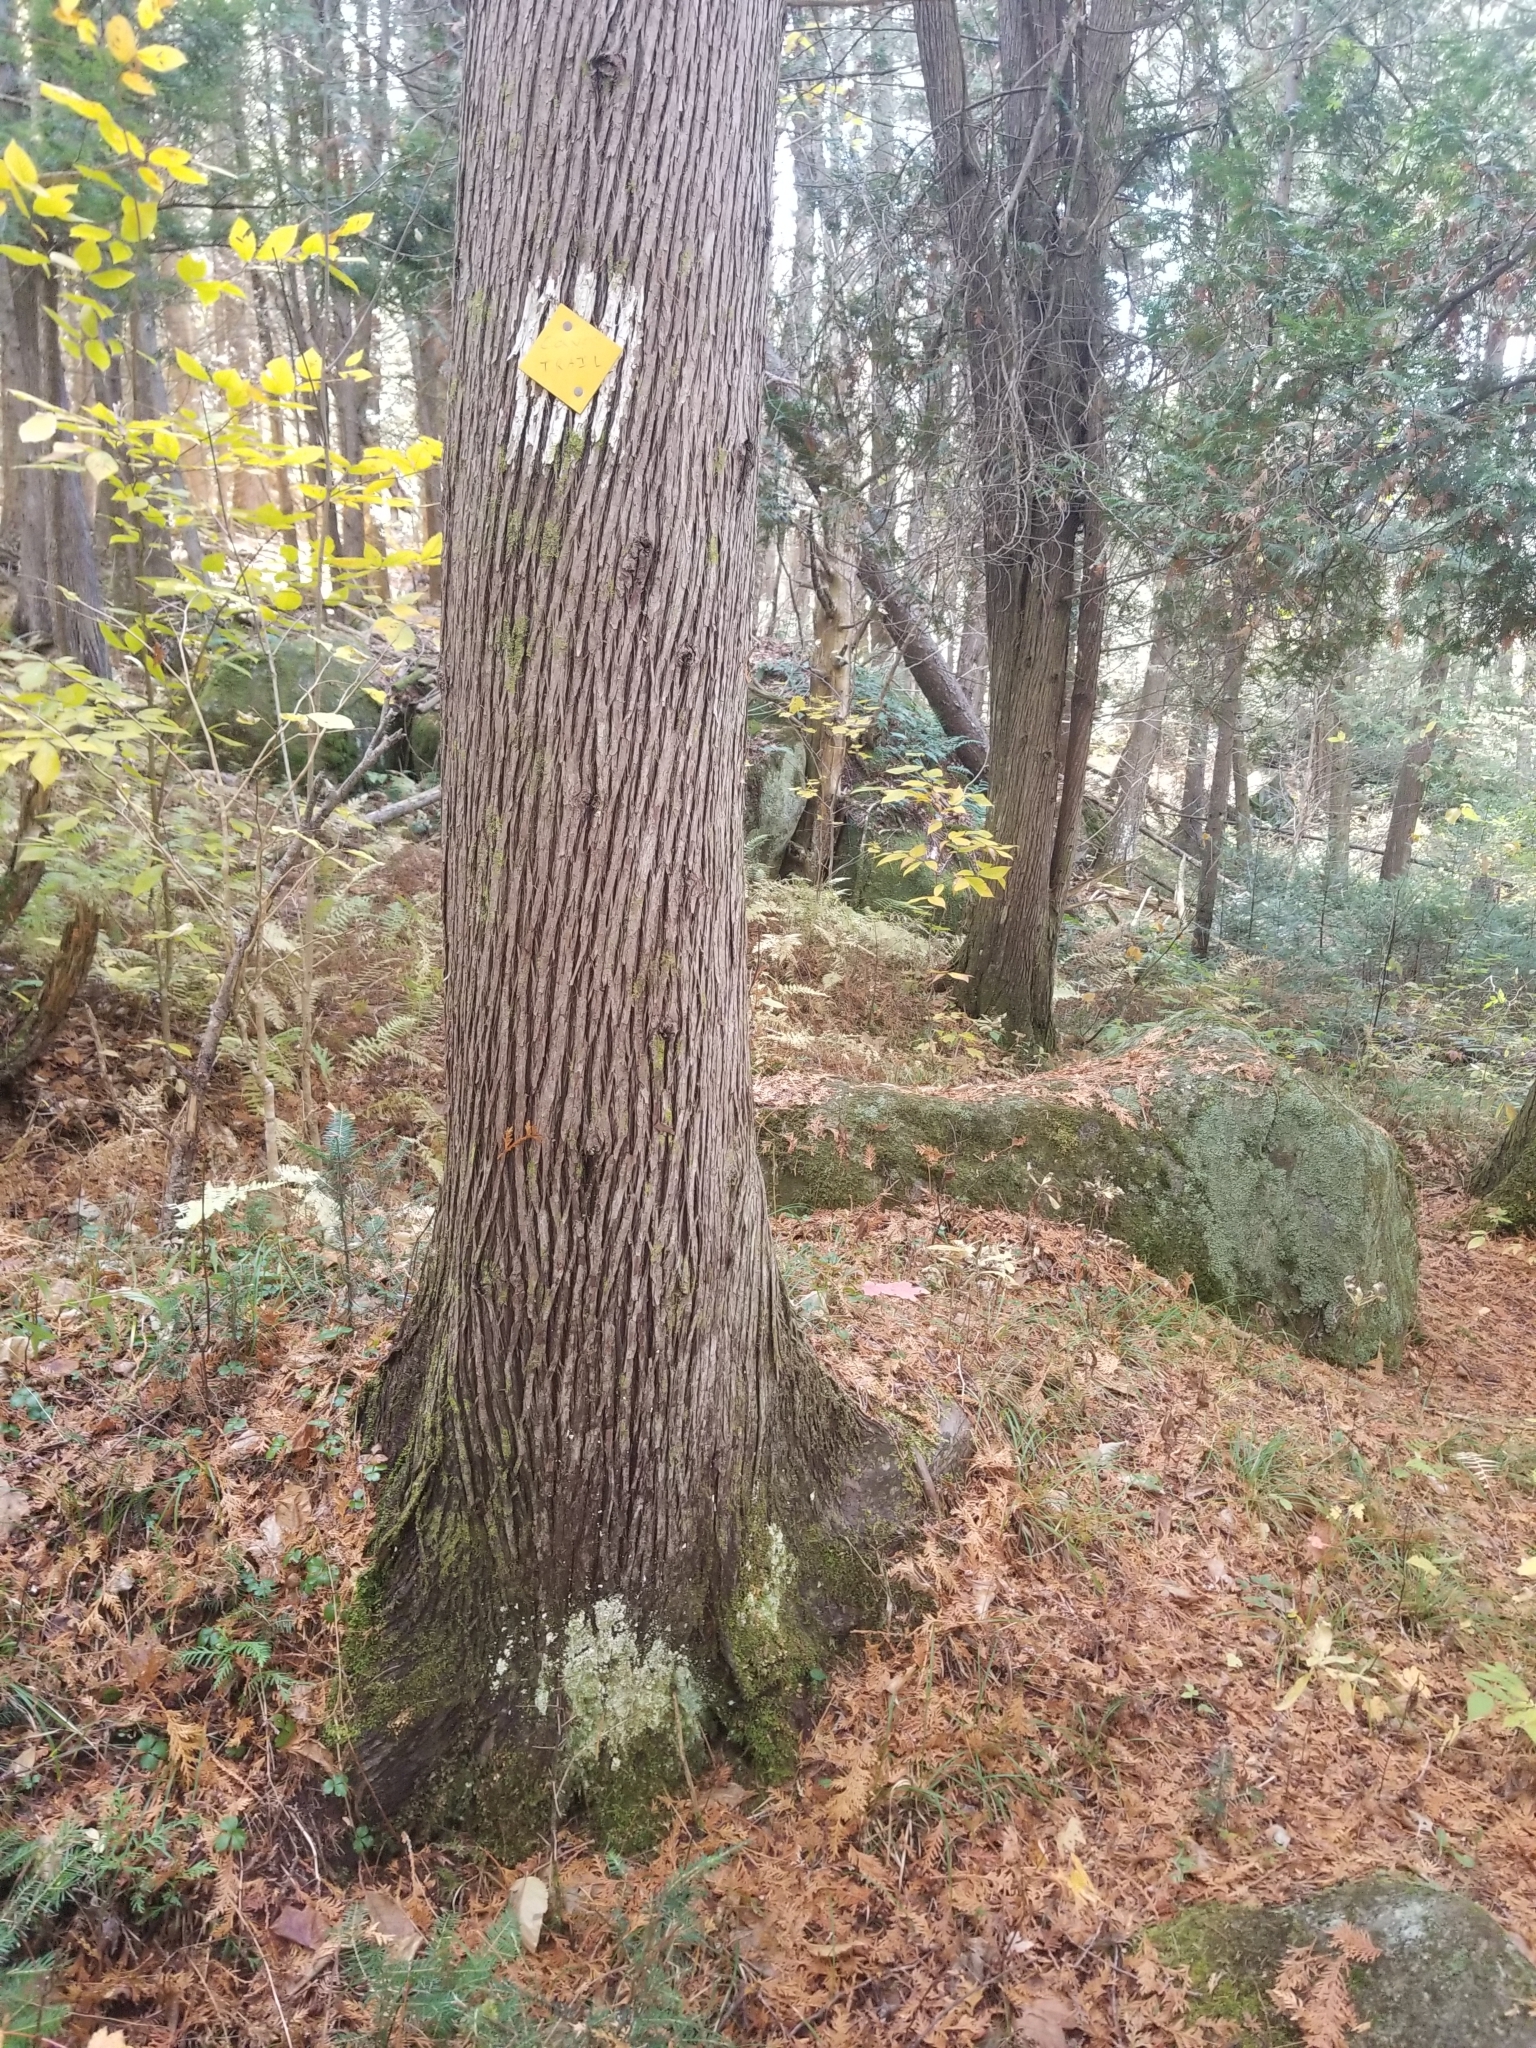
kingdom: Plantae
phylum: Tracheophyta
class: Pinopsida
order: Pinales
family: Cupressaceae
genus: Thuja
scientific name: Thuja occidentalis
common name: Northern white-cedar
